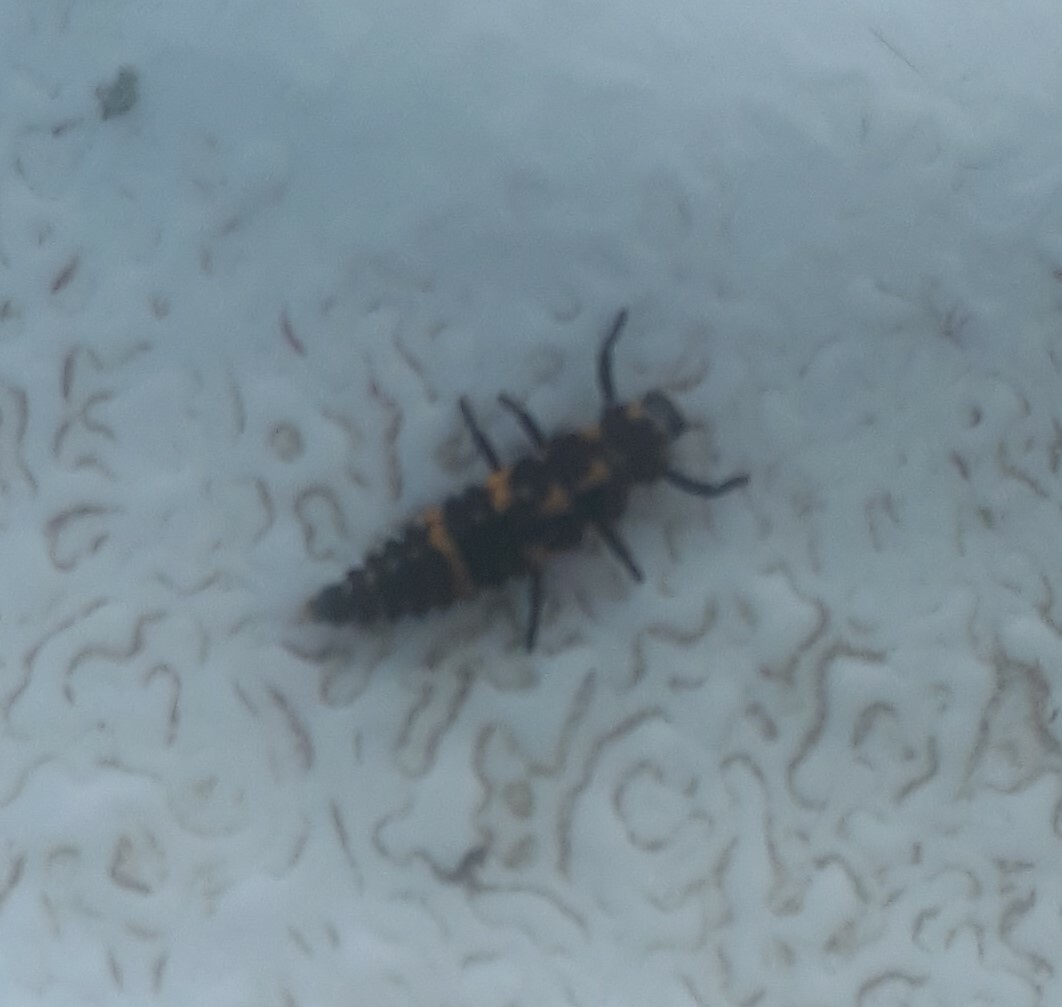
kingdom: Animalia
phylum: Arthropoda
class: Insecta
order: Coleoptera
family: Coccinellidae
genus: Coleomegilla
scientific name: Coleomegilla maculata
